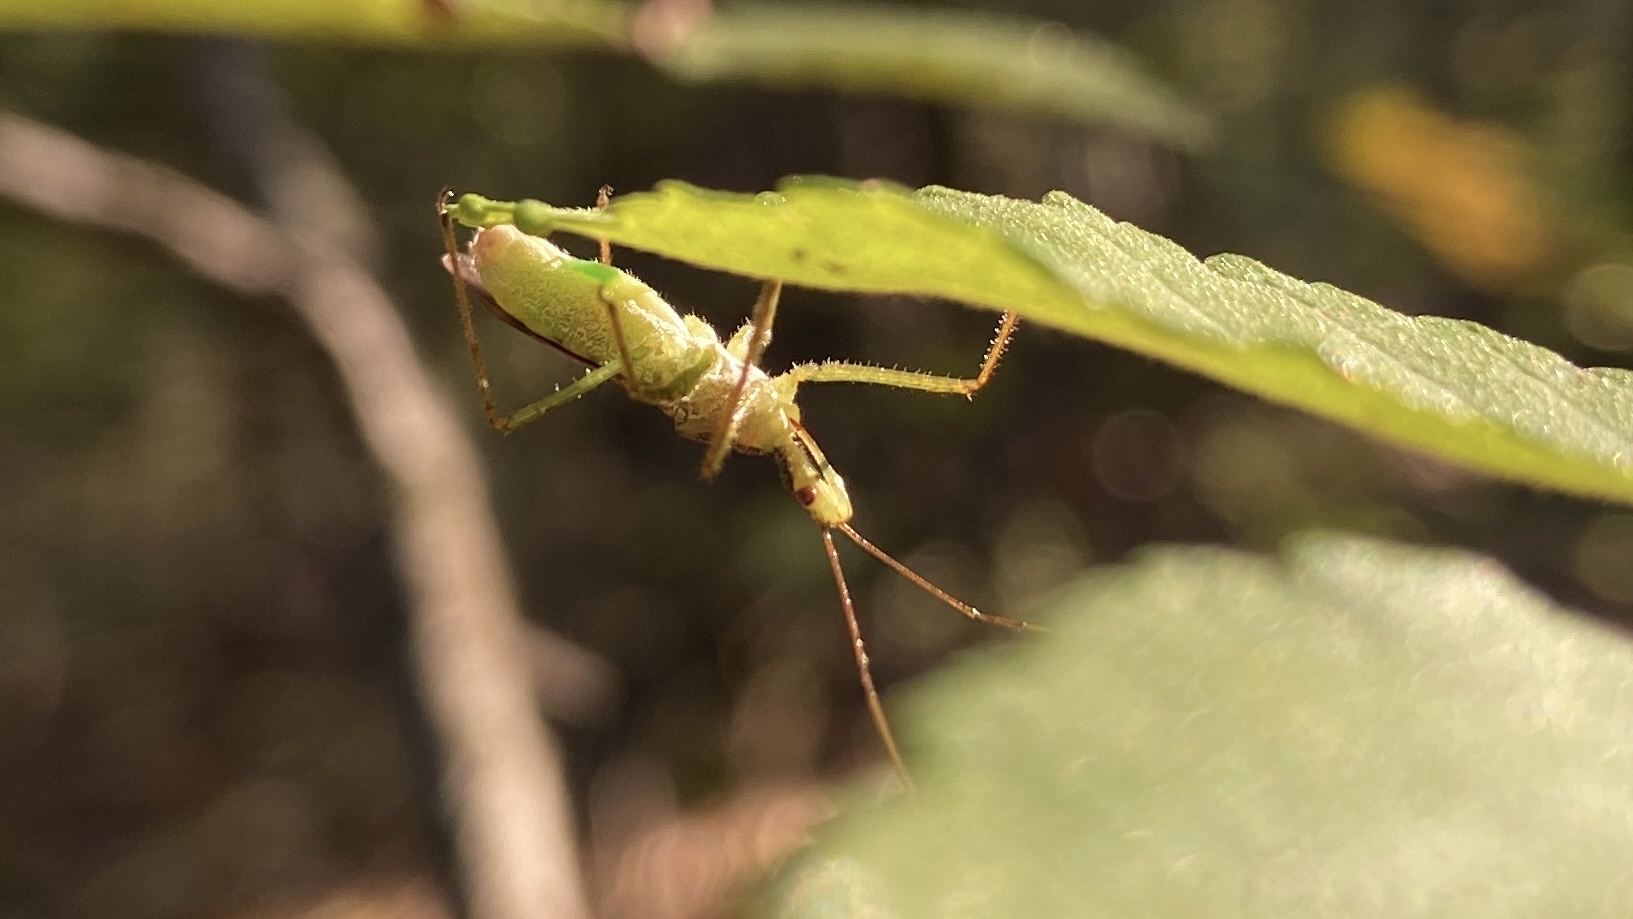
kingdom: Animalia
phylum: Arthropoda
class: Insecta
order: Hemiptera
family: Reduviidae
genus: Zelus
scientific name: Zelus renardii
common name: Assassin bug
